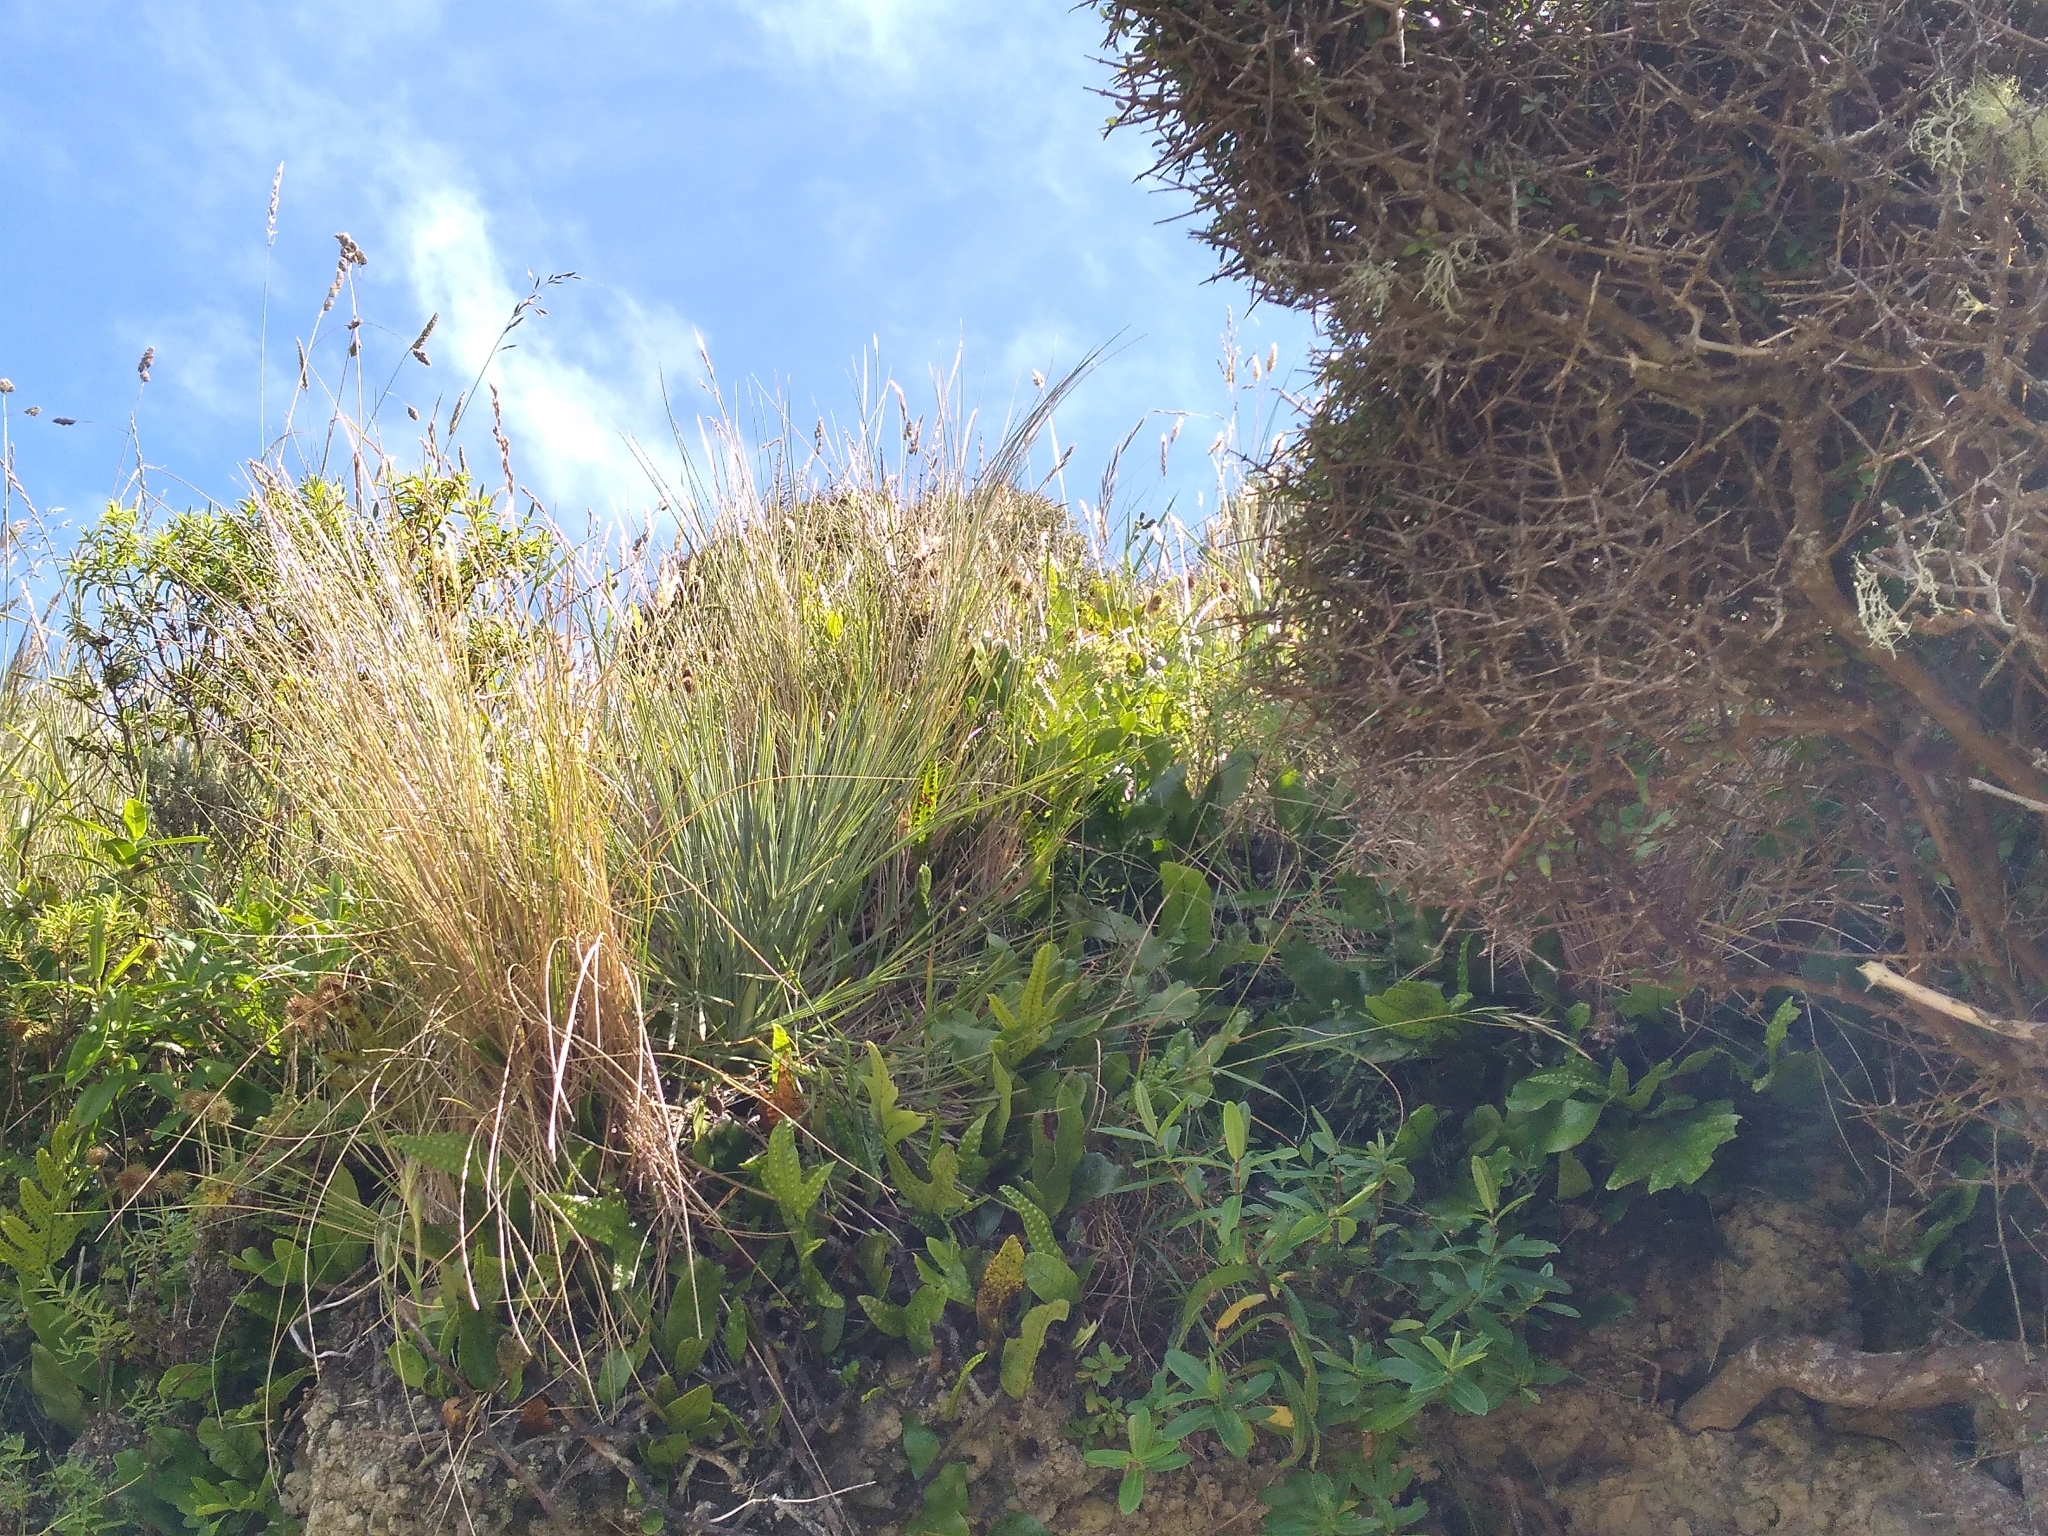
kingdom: Plantae
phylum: Tracheophyta
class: Magnoliopsida
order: Apiales
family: Apiaceae
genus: Aciphylla
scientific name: Aciphylla squarrosa
